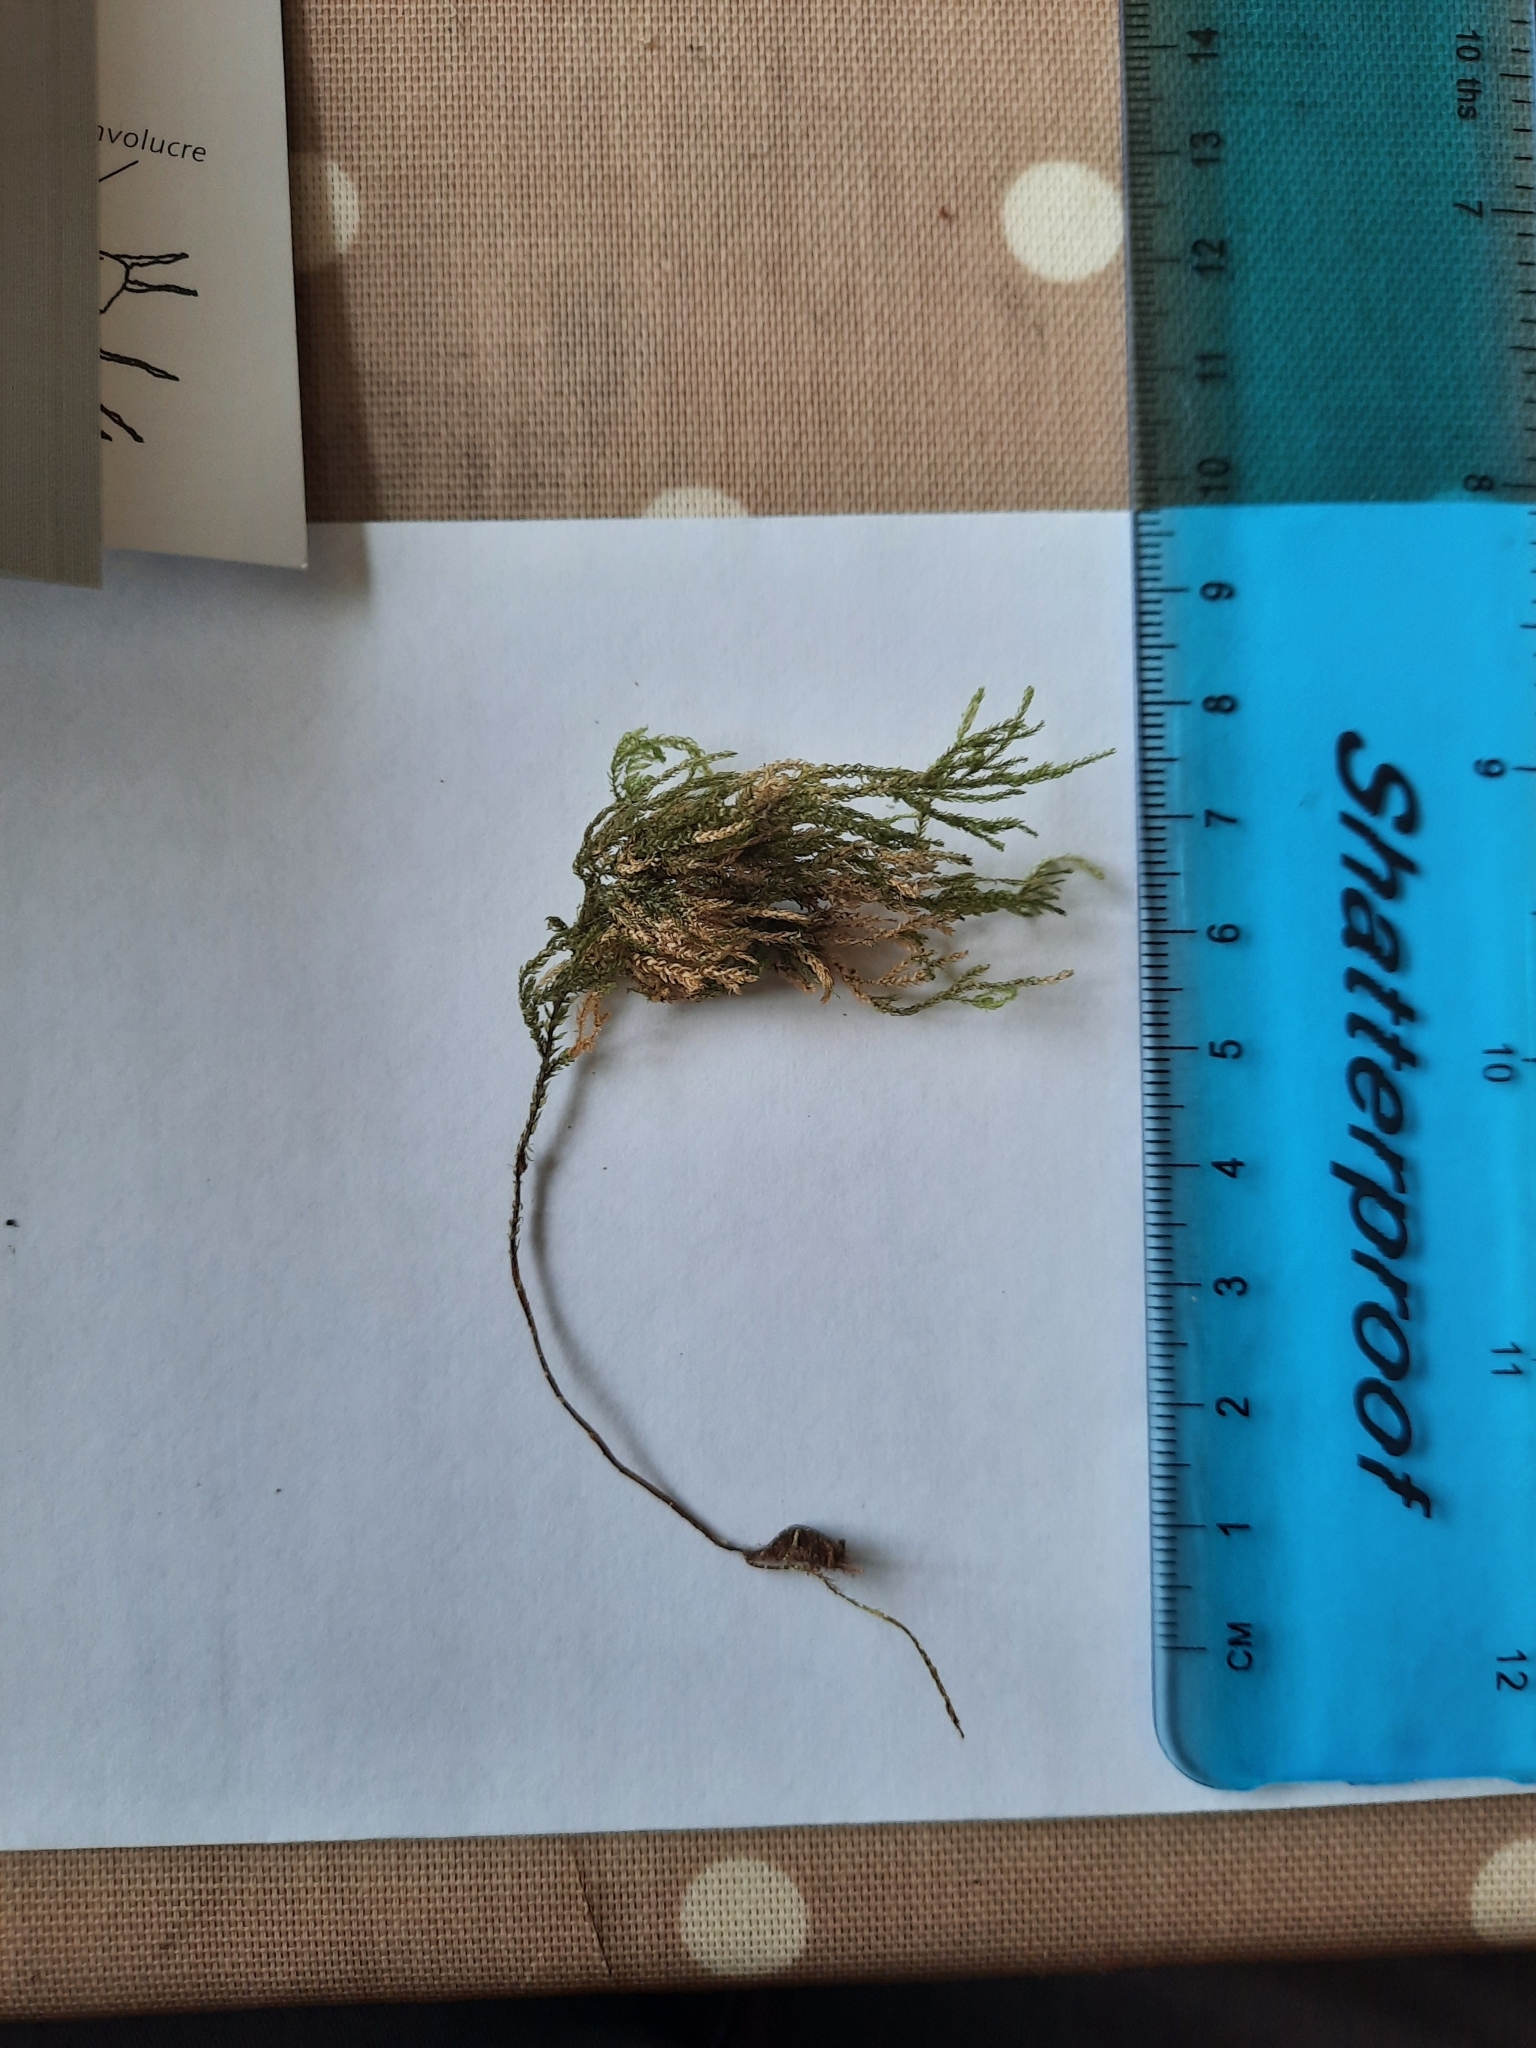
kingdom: Plantae
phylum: Bryophyta
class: Bryopsida
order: Hypnales
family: Neckeraceae
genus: Thamnobryum
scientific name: Thamnobryum alopecurum
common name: Fox-tail feather-moss
